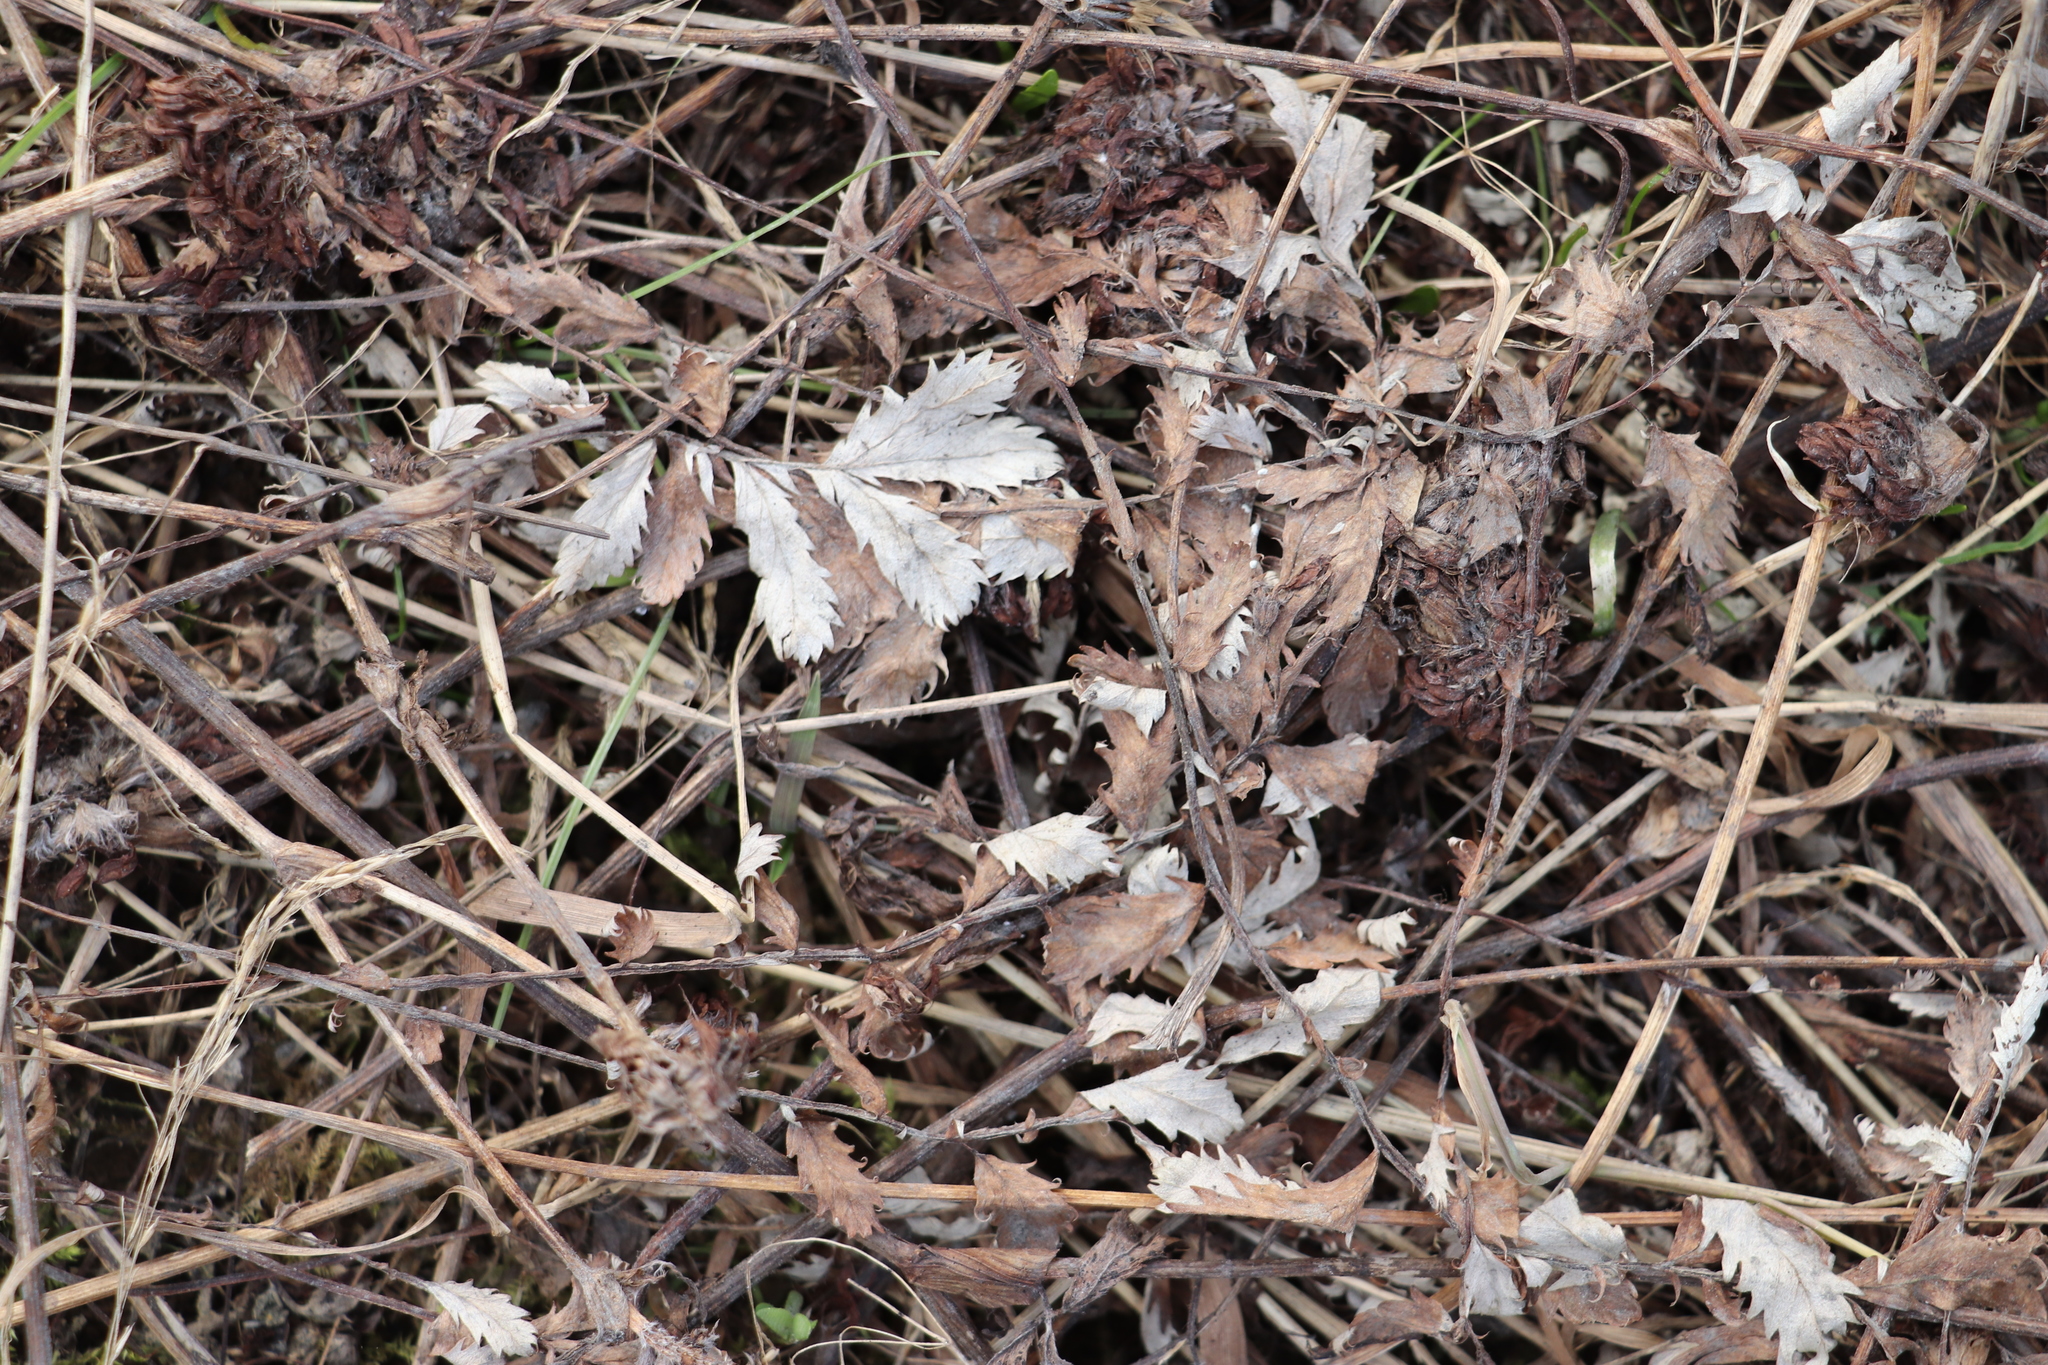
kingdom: Plantae
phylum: Tracheophyta
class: Magnoliopsida
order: Rosales
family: Rosaceae
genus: Argentina
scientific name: Argentina anserina
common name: Common silverweed
